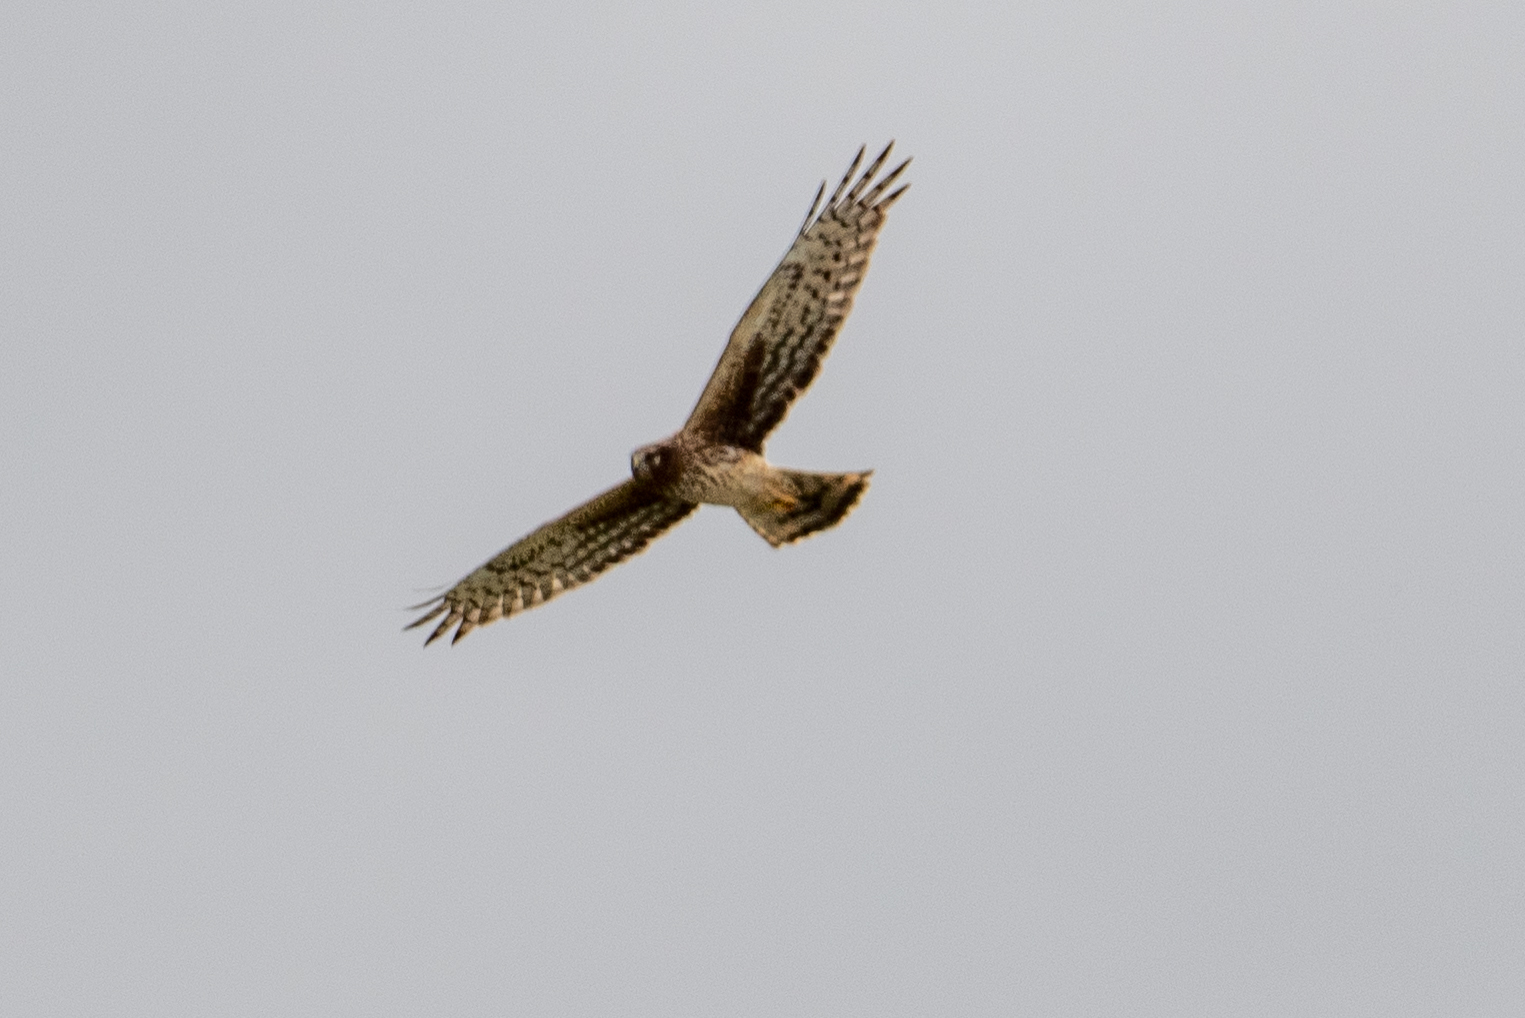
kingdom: Animalia
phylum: Chordata
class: Aves
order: Accipitriformes
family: Accipitridae
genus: Circus
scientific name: Circus cyaneus
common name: Hen harrier
